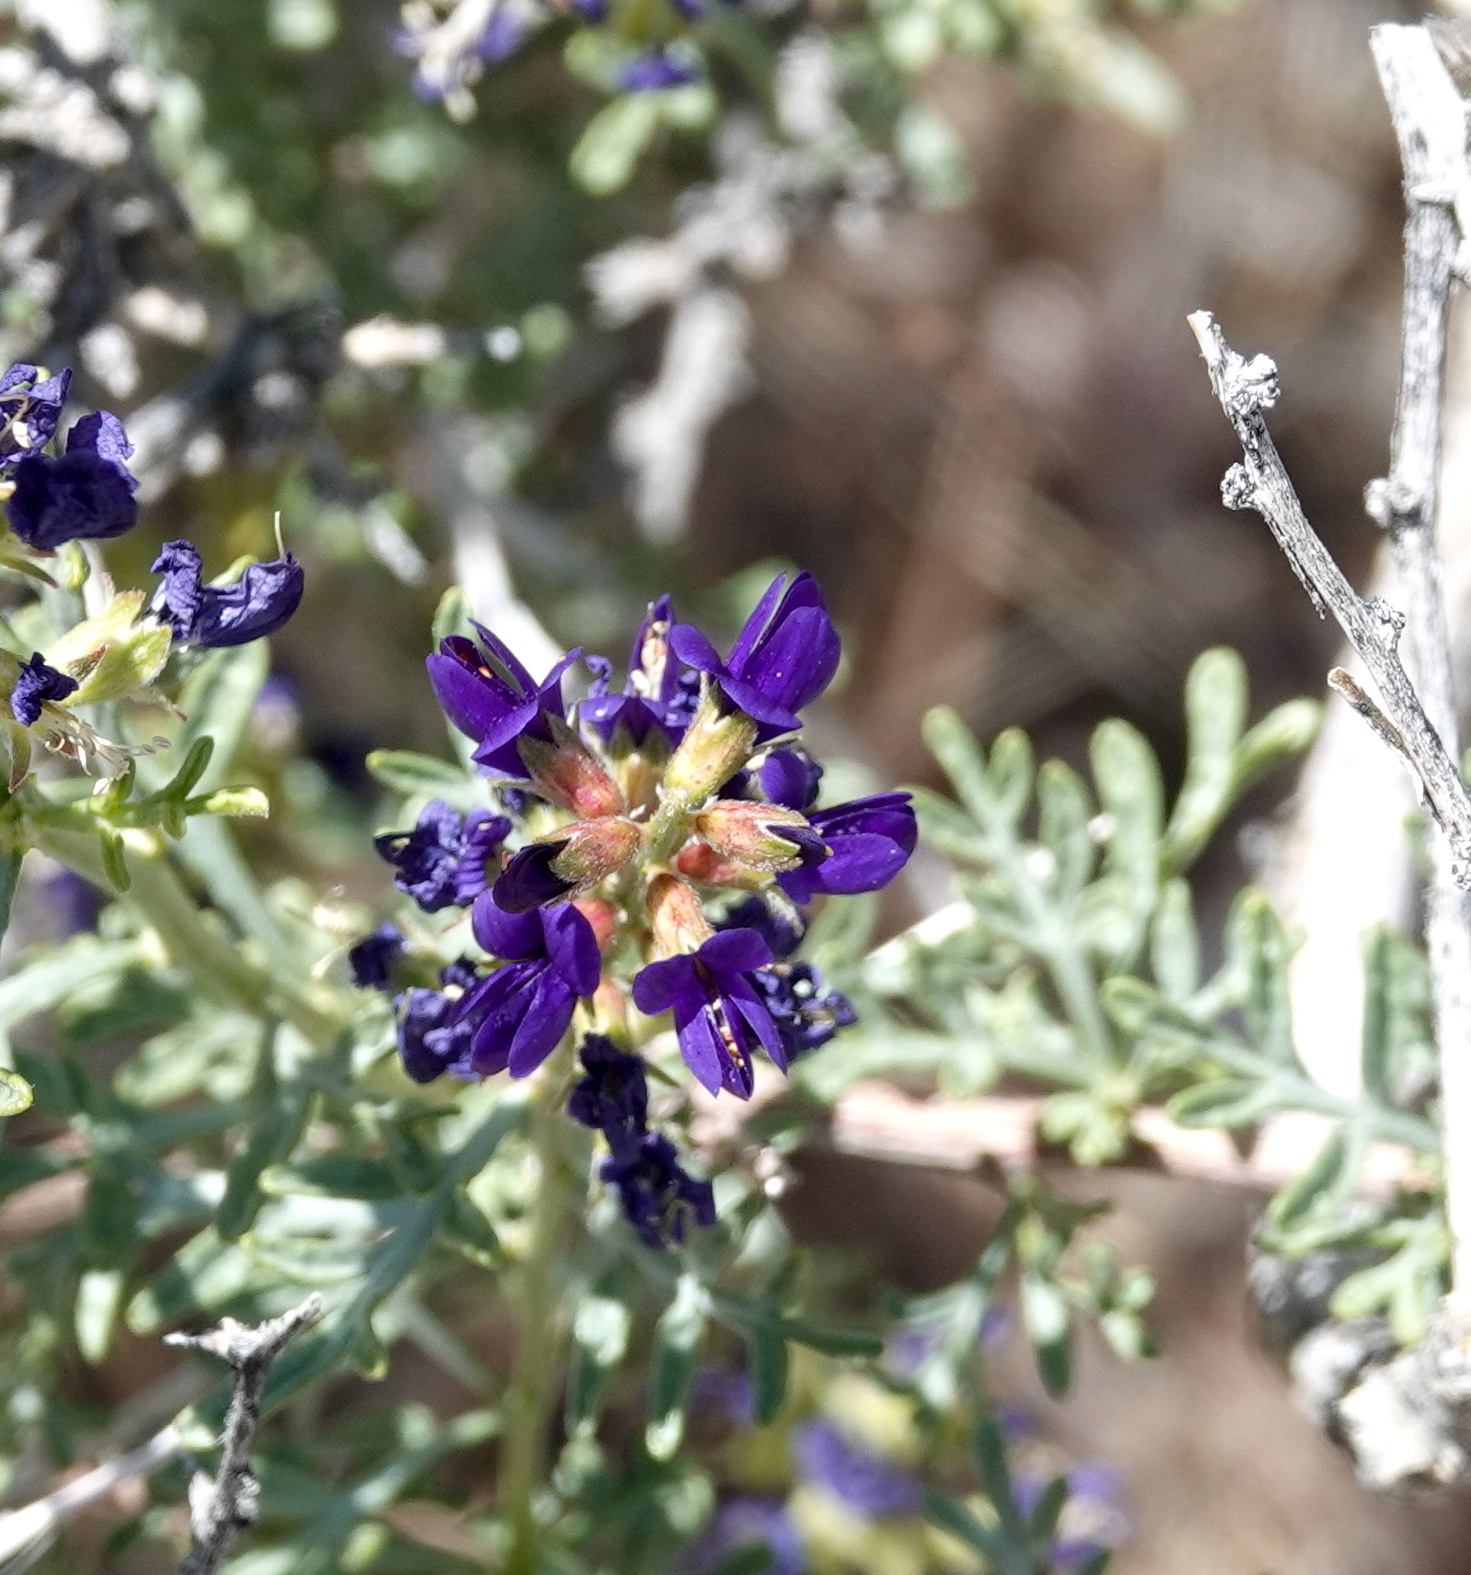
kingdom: Plantae
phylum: Tracheophyta
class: Magnoliopsida
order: Fabales
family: Fabaceae
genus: Psorothamnus
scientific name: Psorothamnus arborescens
